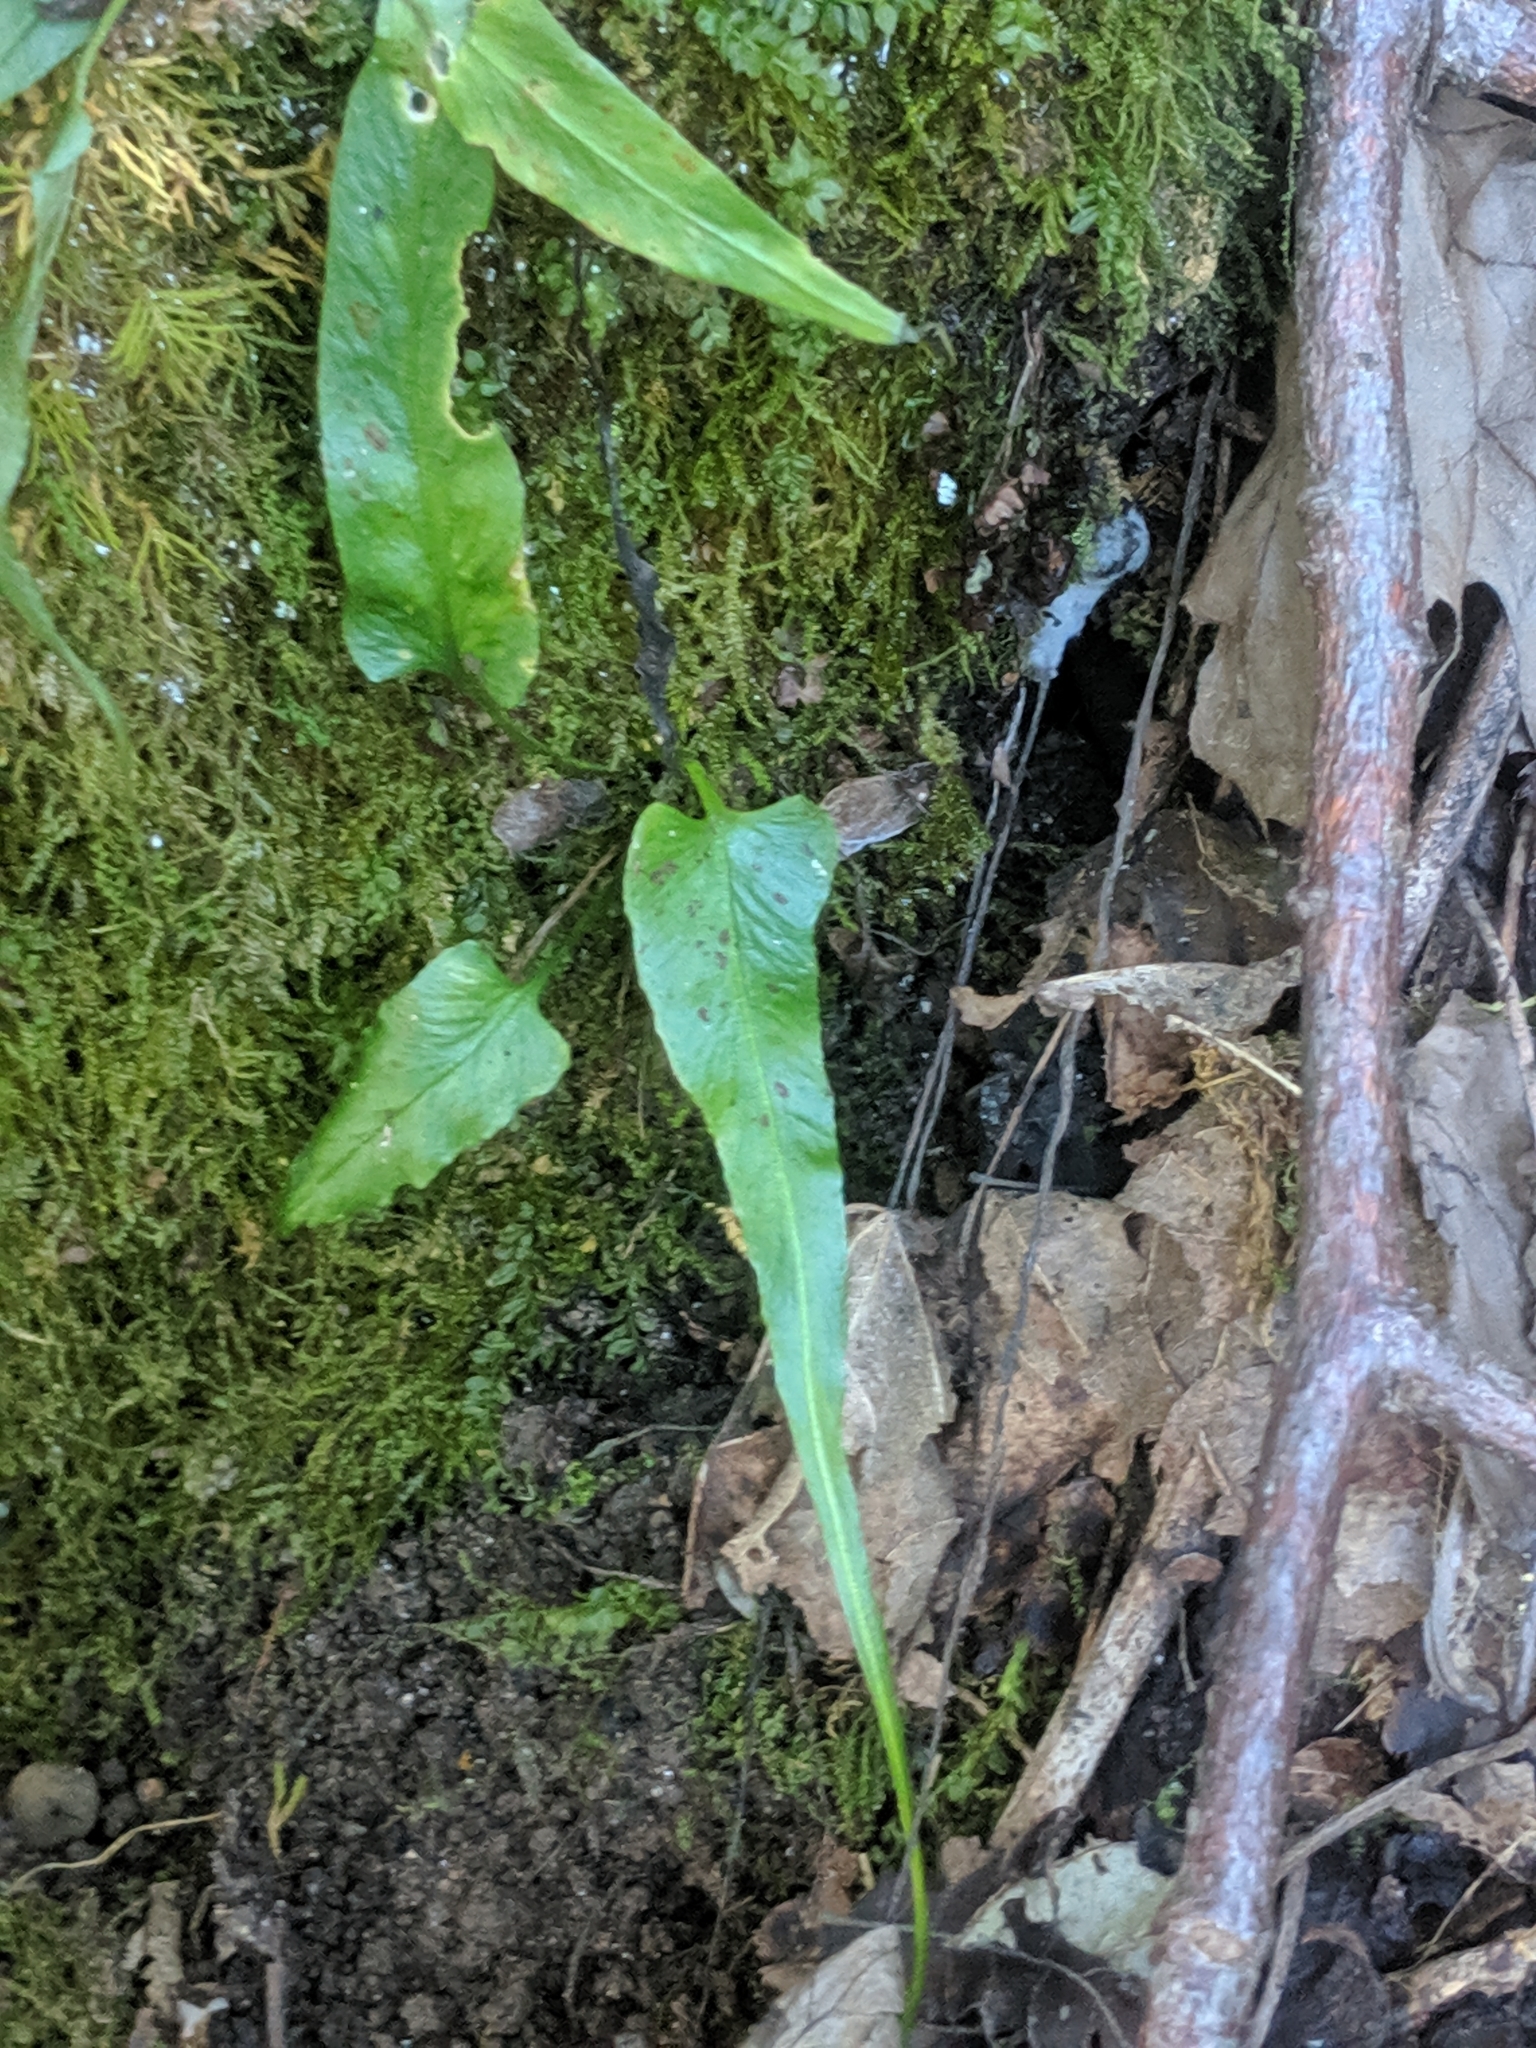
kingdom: Plantae
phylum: Tracheophyta
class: Polypodiopsida
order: Polypodiales
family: Aspleniaceae
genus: Asplenium
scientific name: Asplenium rhizophyllum
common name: Walking fern
